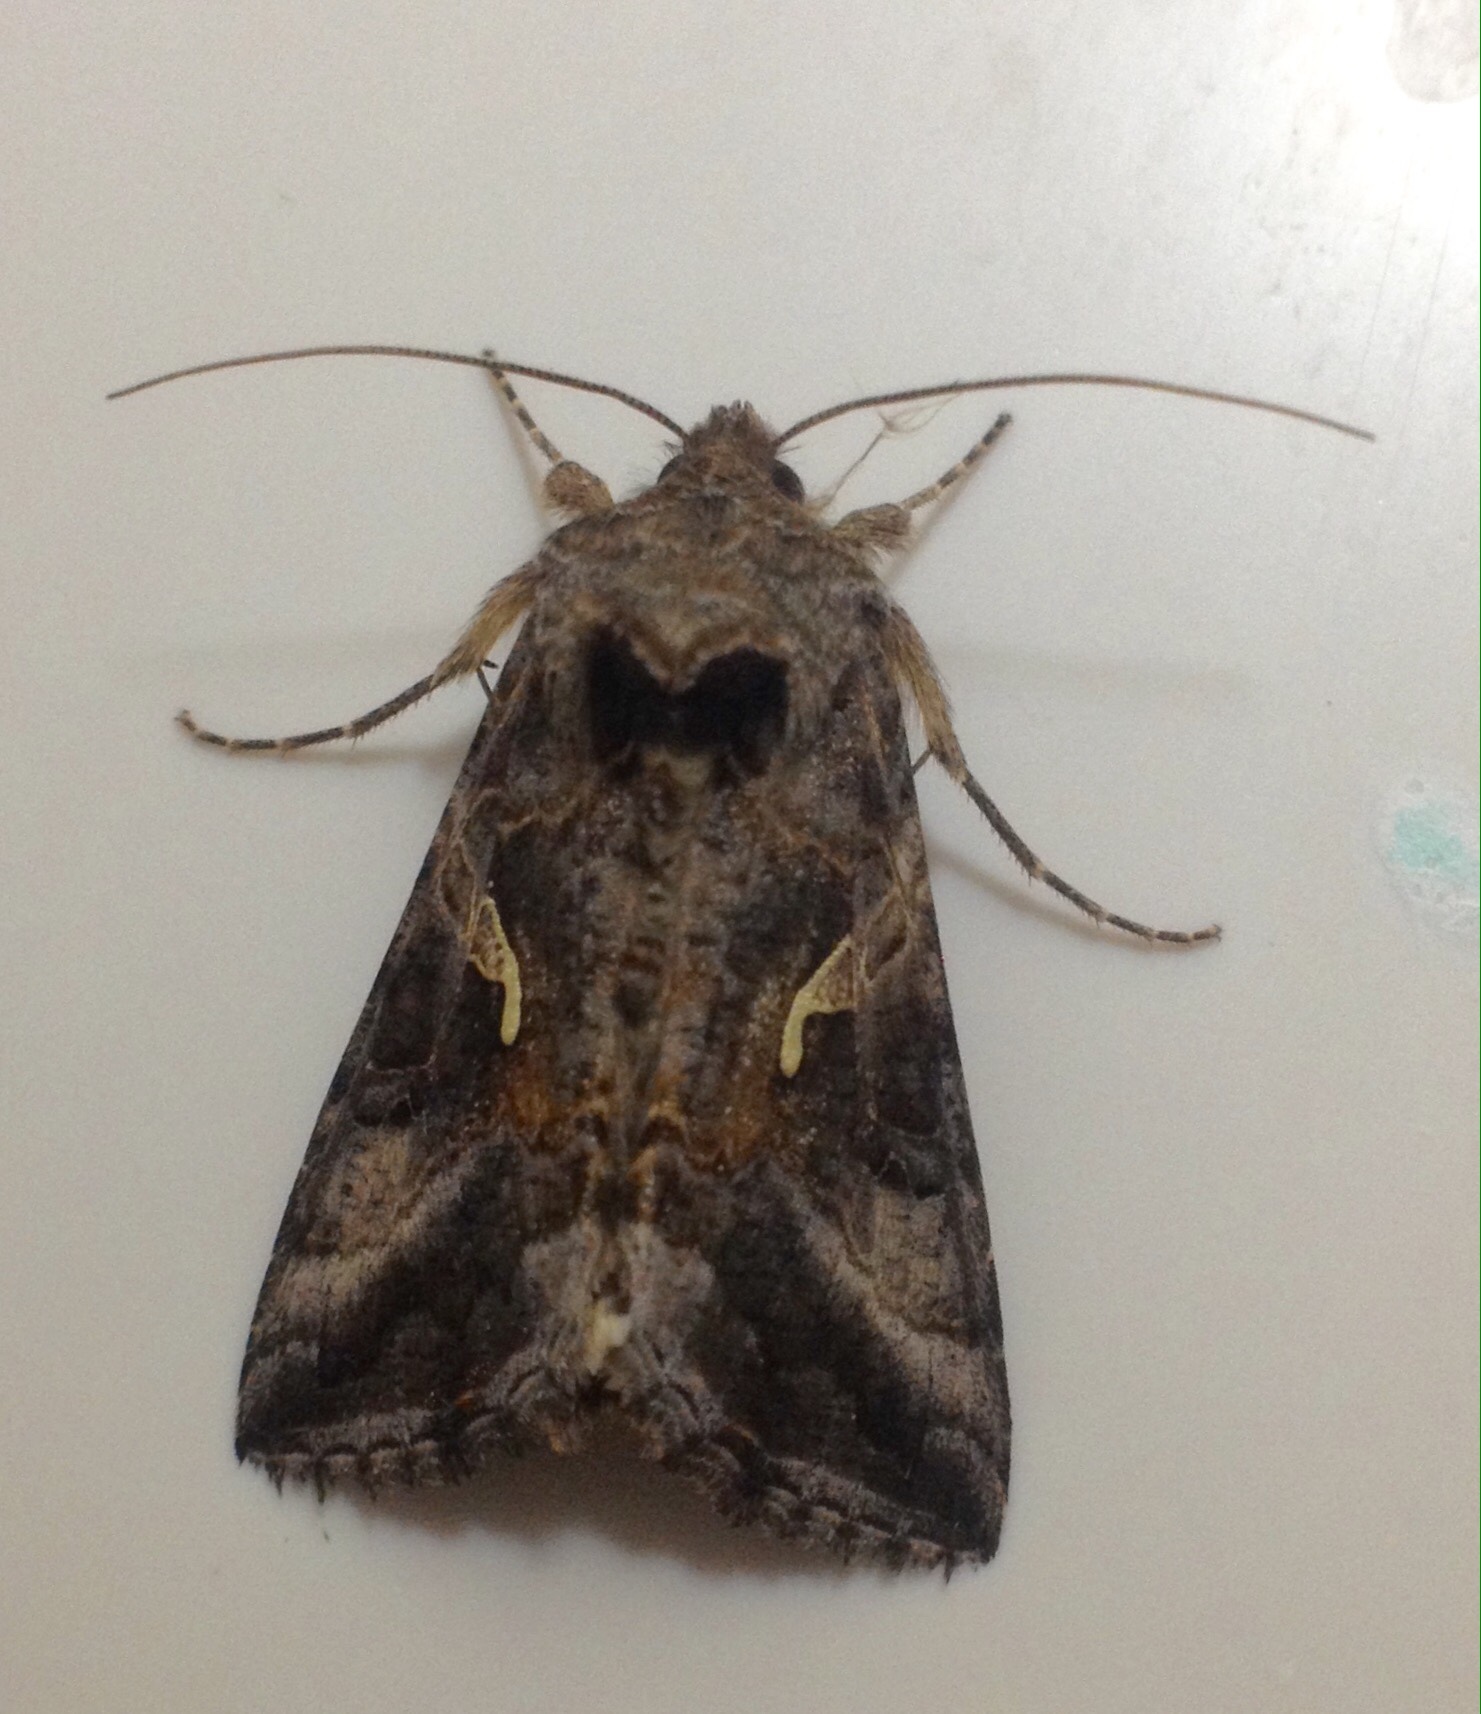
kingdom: Animalia
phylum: Arthropoda
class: Insecta
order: Lepidoptera
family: Noctuidae
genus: Autographa
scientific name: Autographa gamma
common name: Silver y
